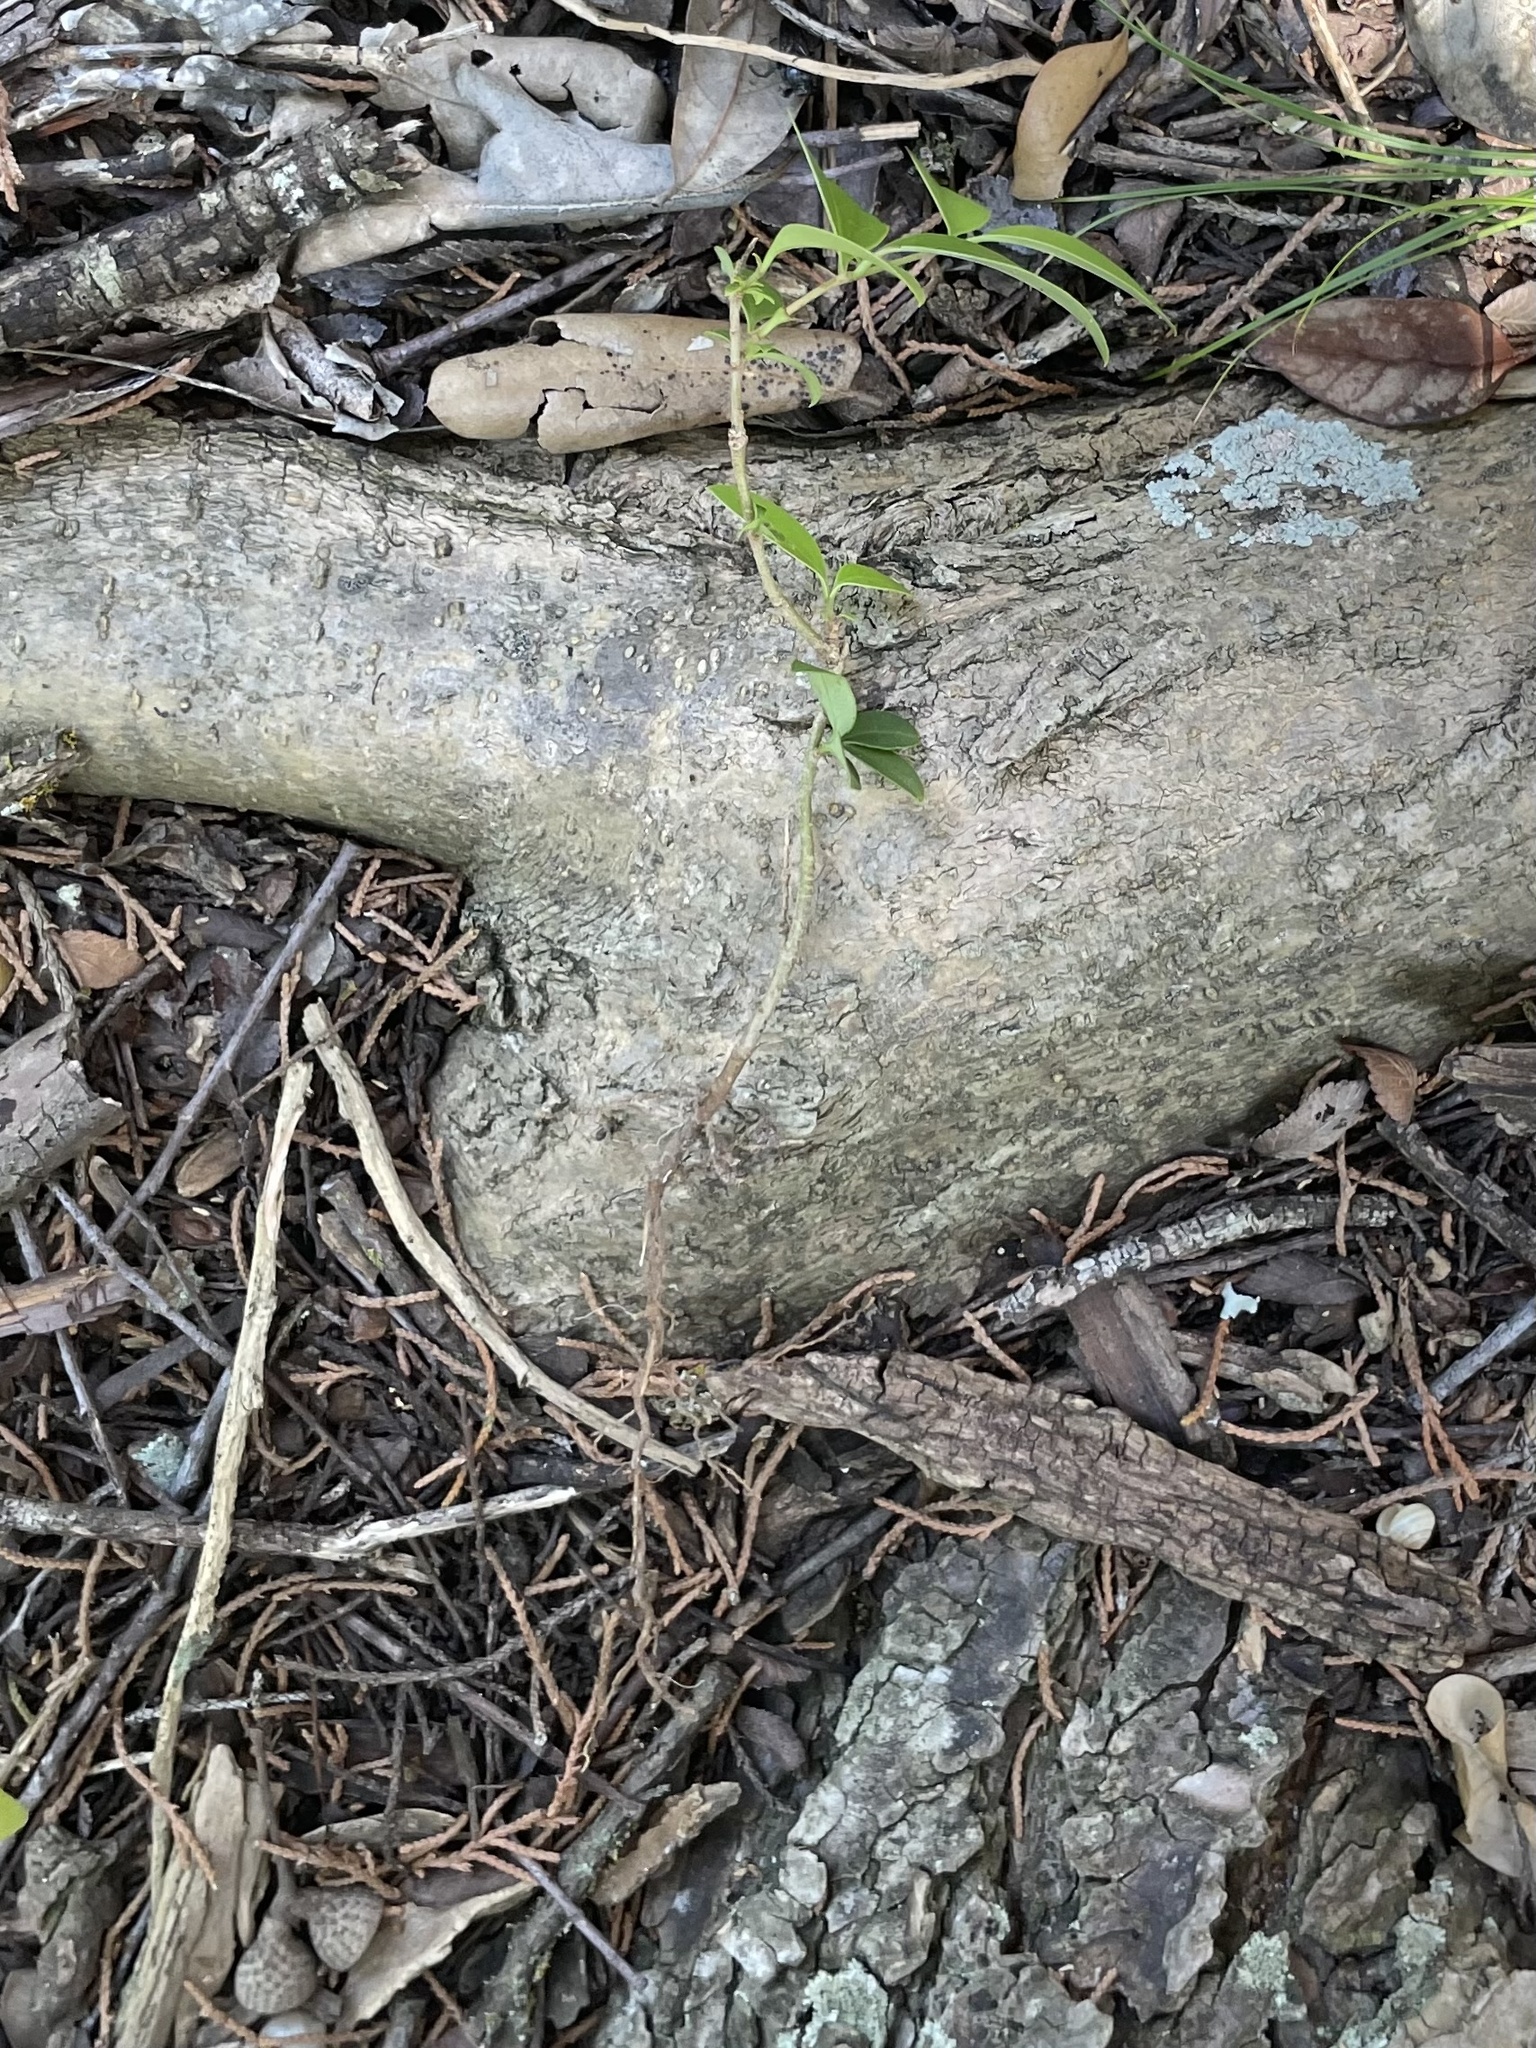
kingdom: Plantae
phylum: Tracheophyta
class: Magnoliopsida
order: Lamiales
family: Oleaceae
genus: Ligustrum
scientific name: Ligustrum lucidum
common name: Glossy privet
